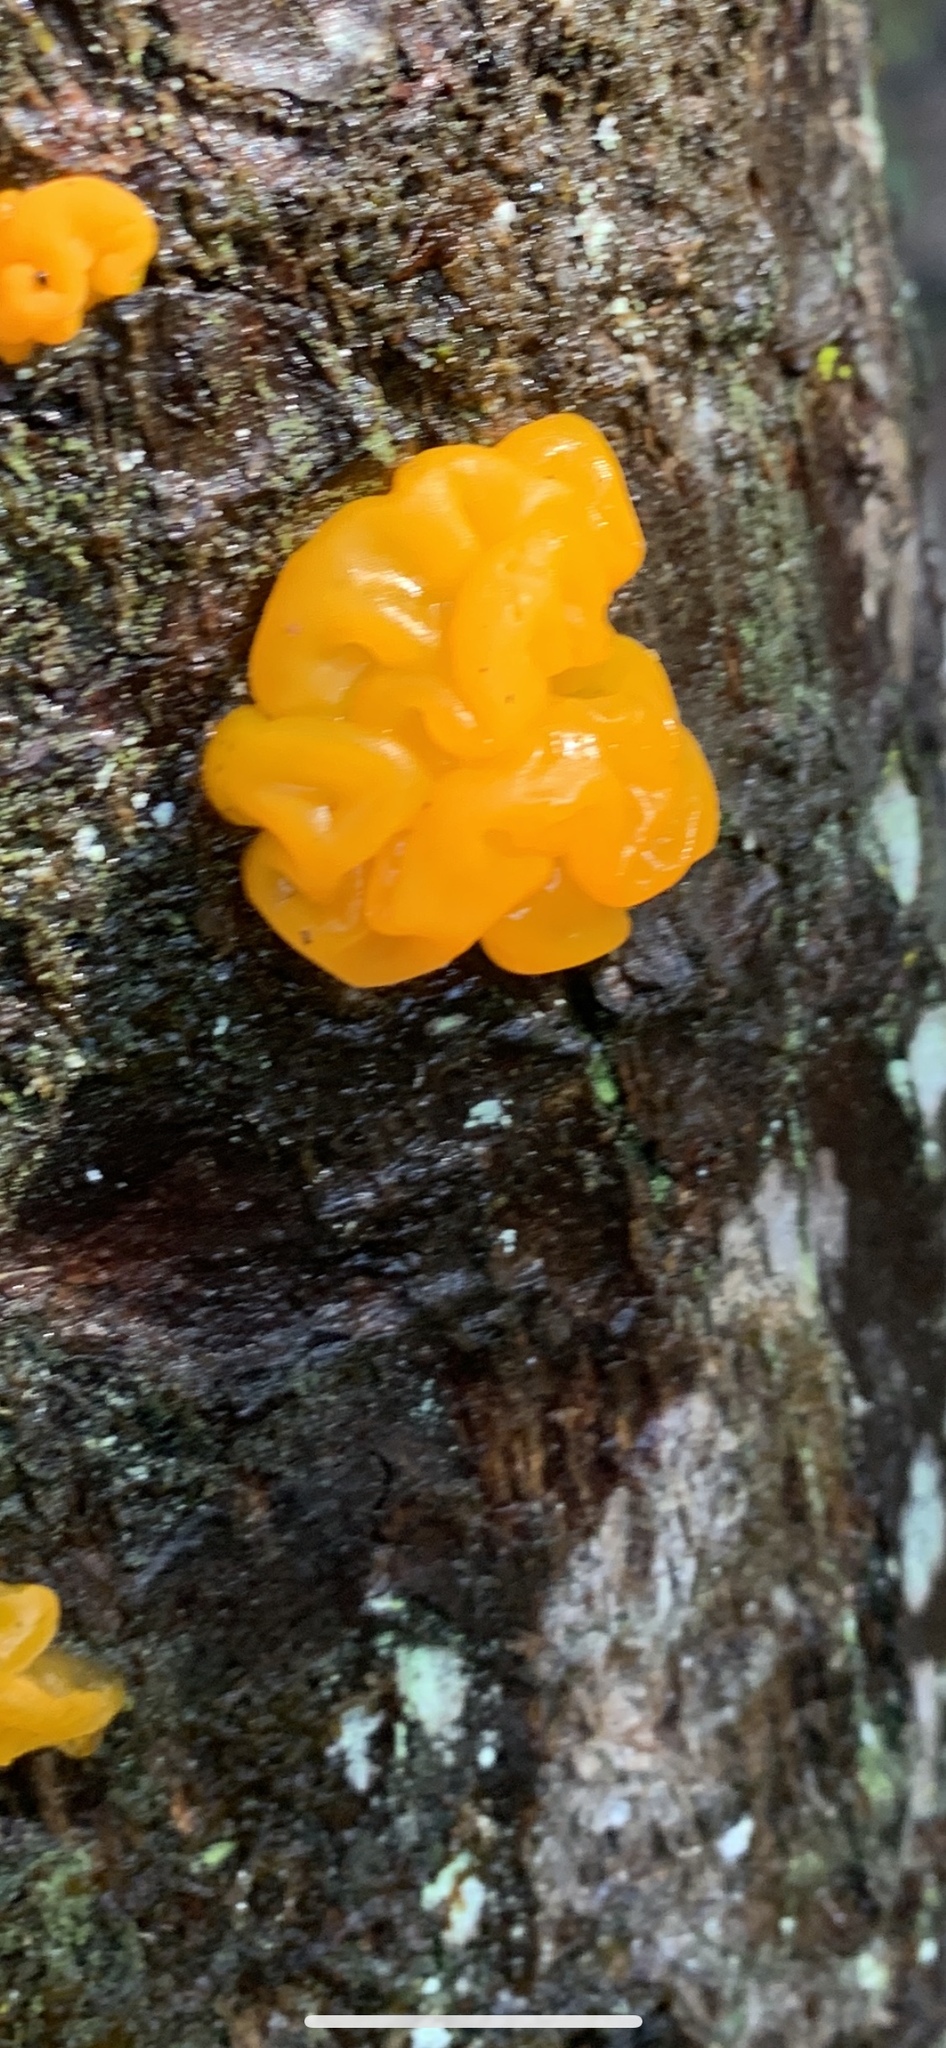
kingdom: Fungi
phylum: Basidiomycota
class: Dacrymycetes
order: Dacrymycetales
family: Dacrymycetaceae
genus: Dacrymyces
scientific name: Dacrymyces chrysospermus
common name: Orange jelly spot
